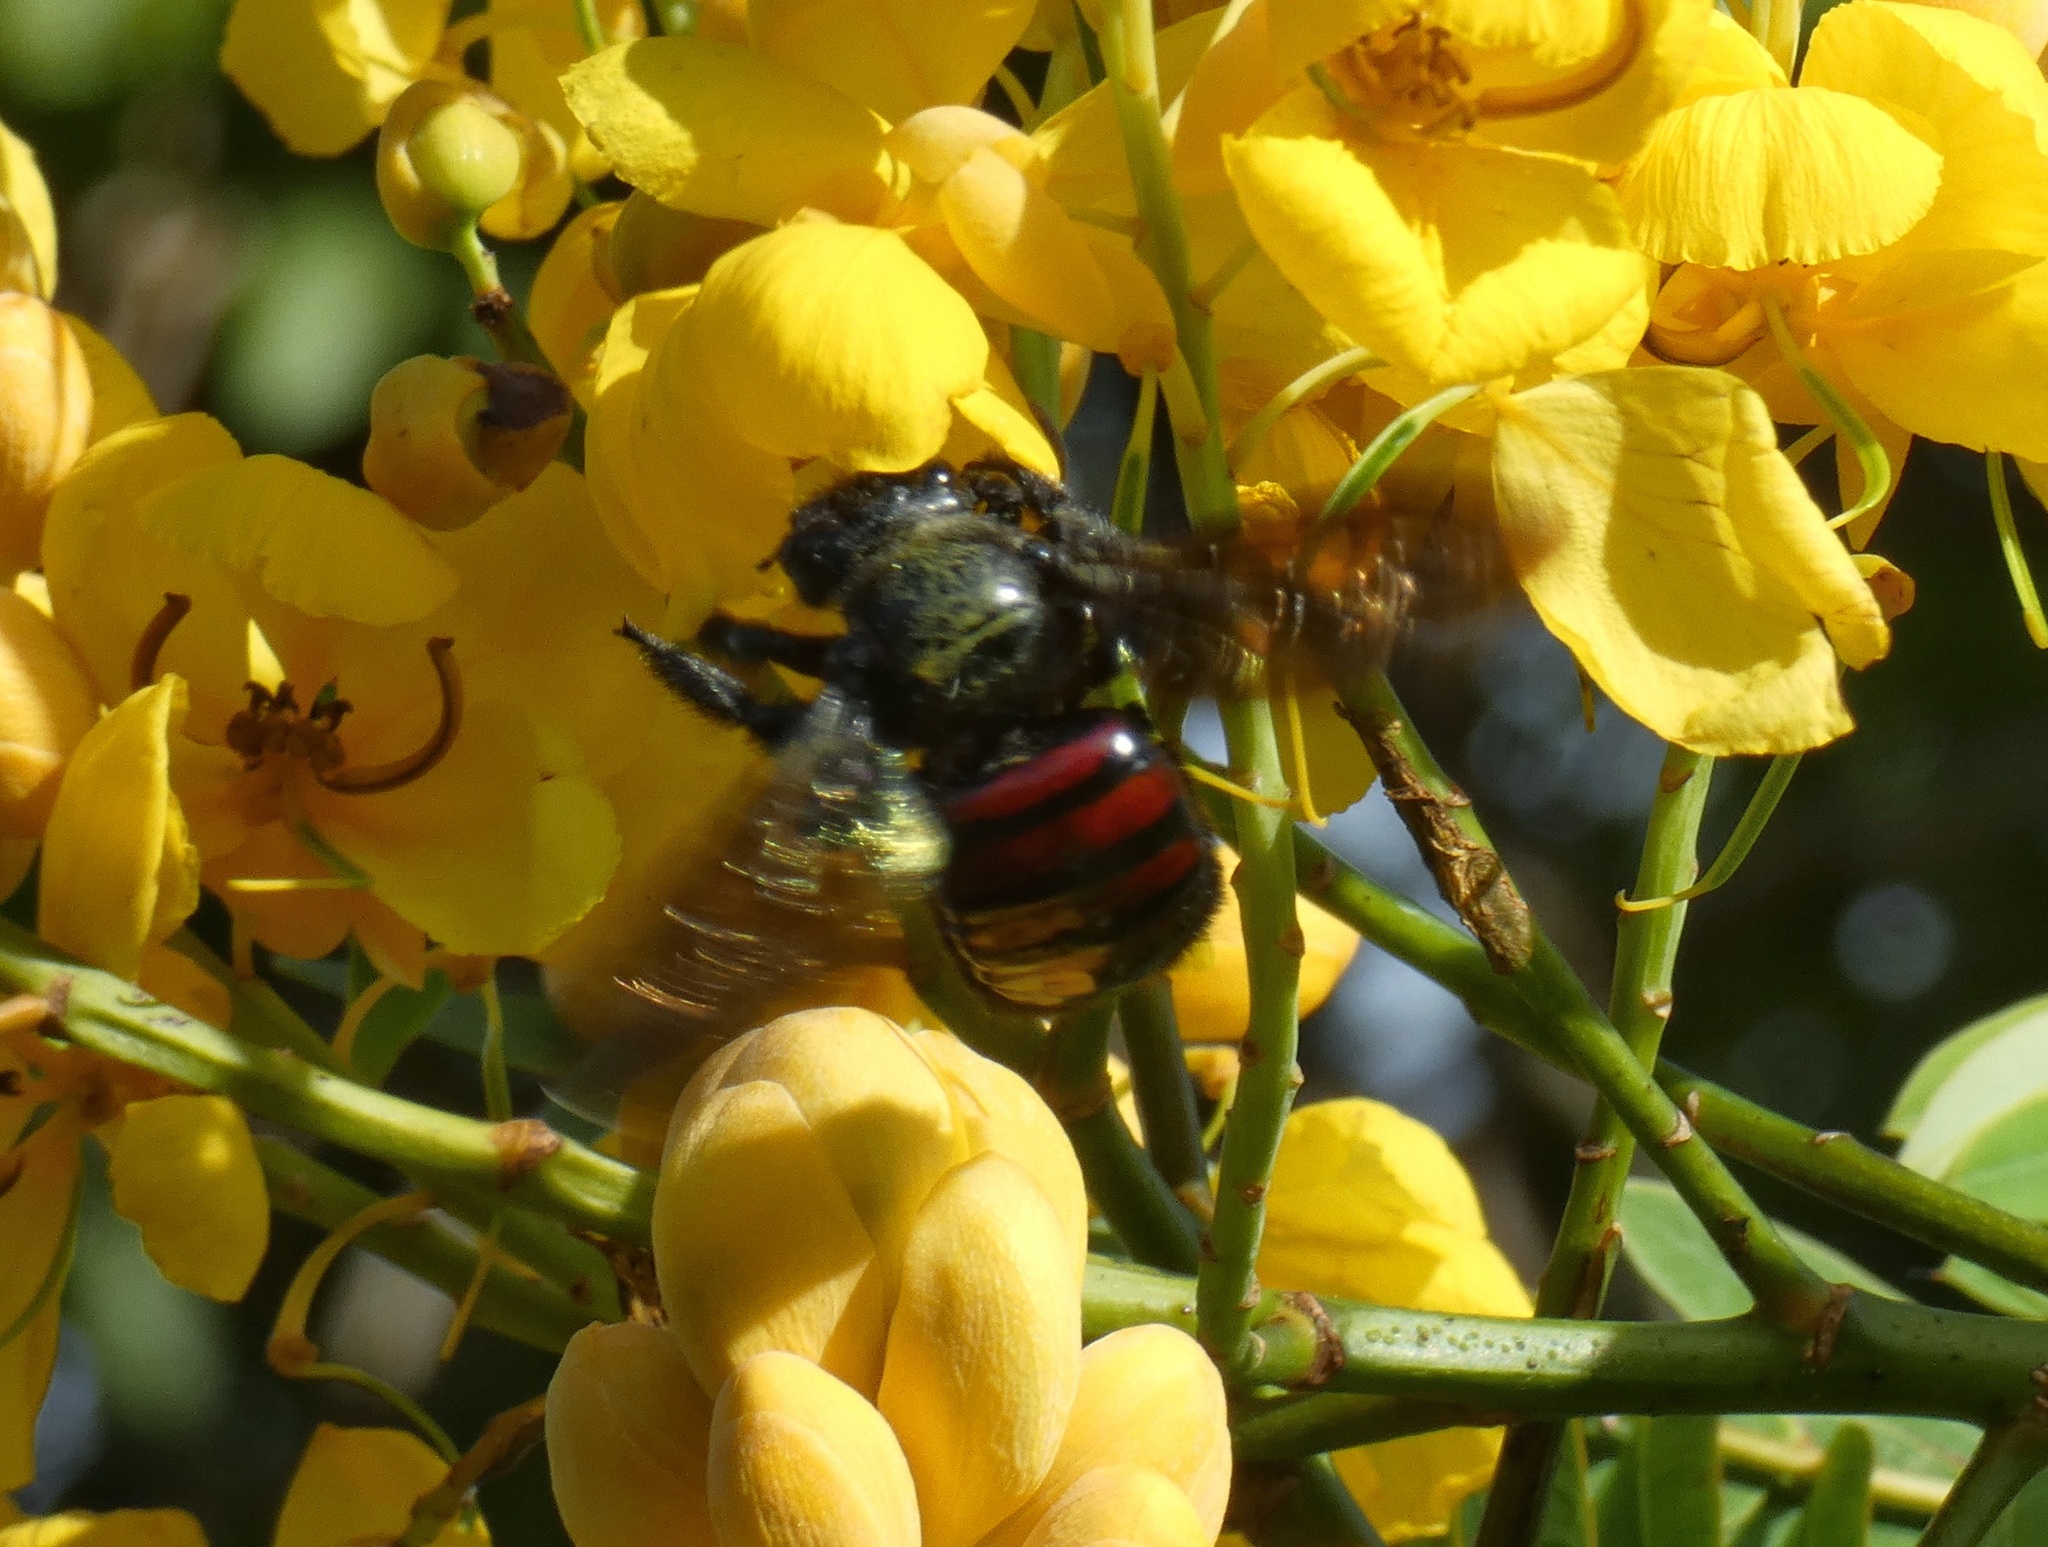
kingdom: Animalia
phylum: Arthropoda
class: Insecta
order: Hymenoptera
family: Apidae
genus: Xylocopa
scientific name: Xylocopa frontalis
